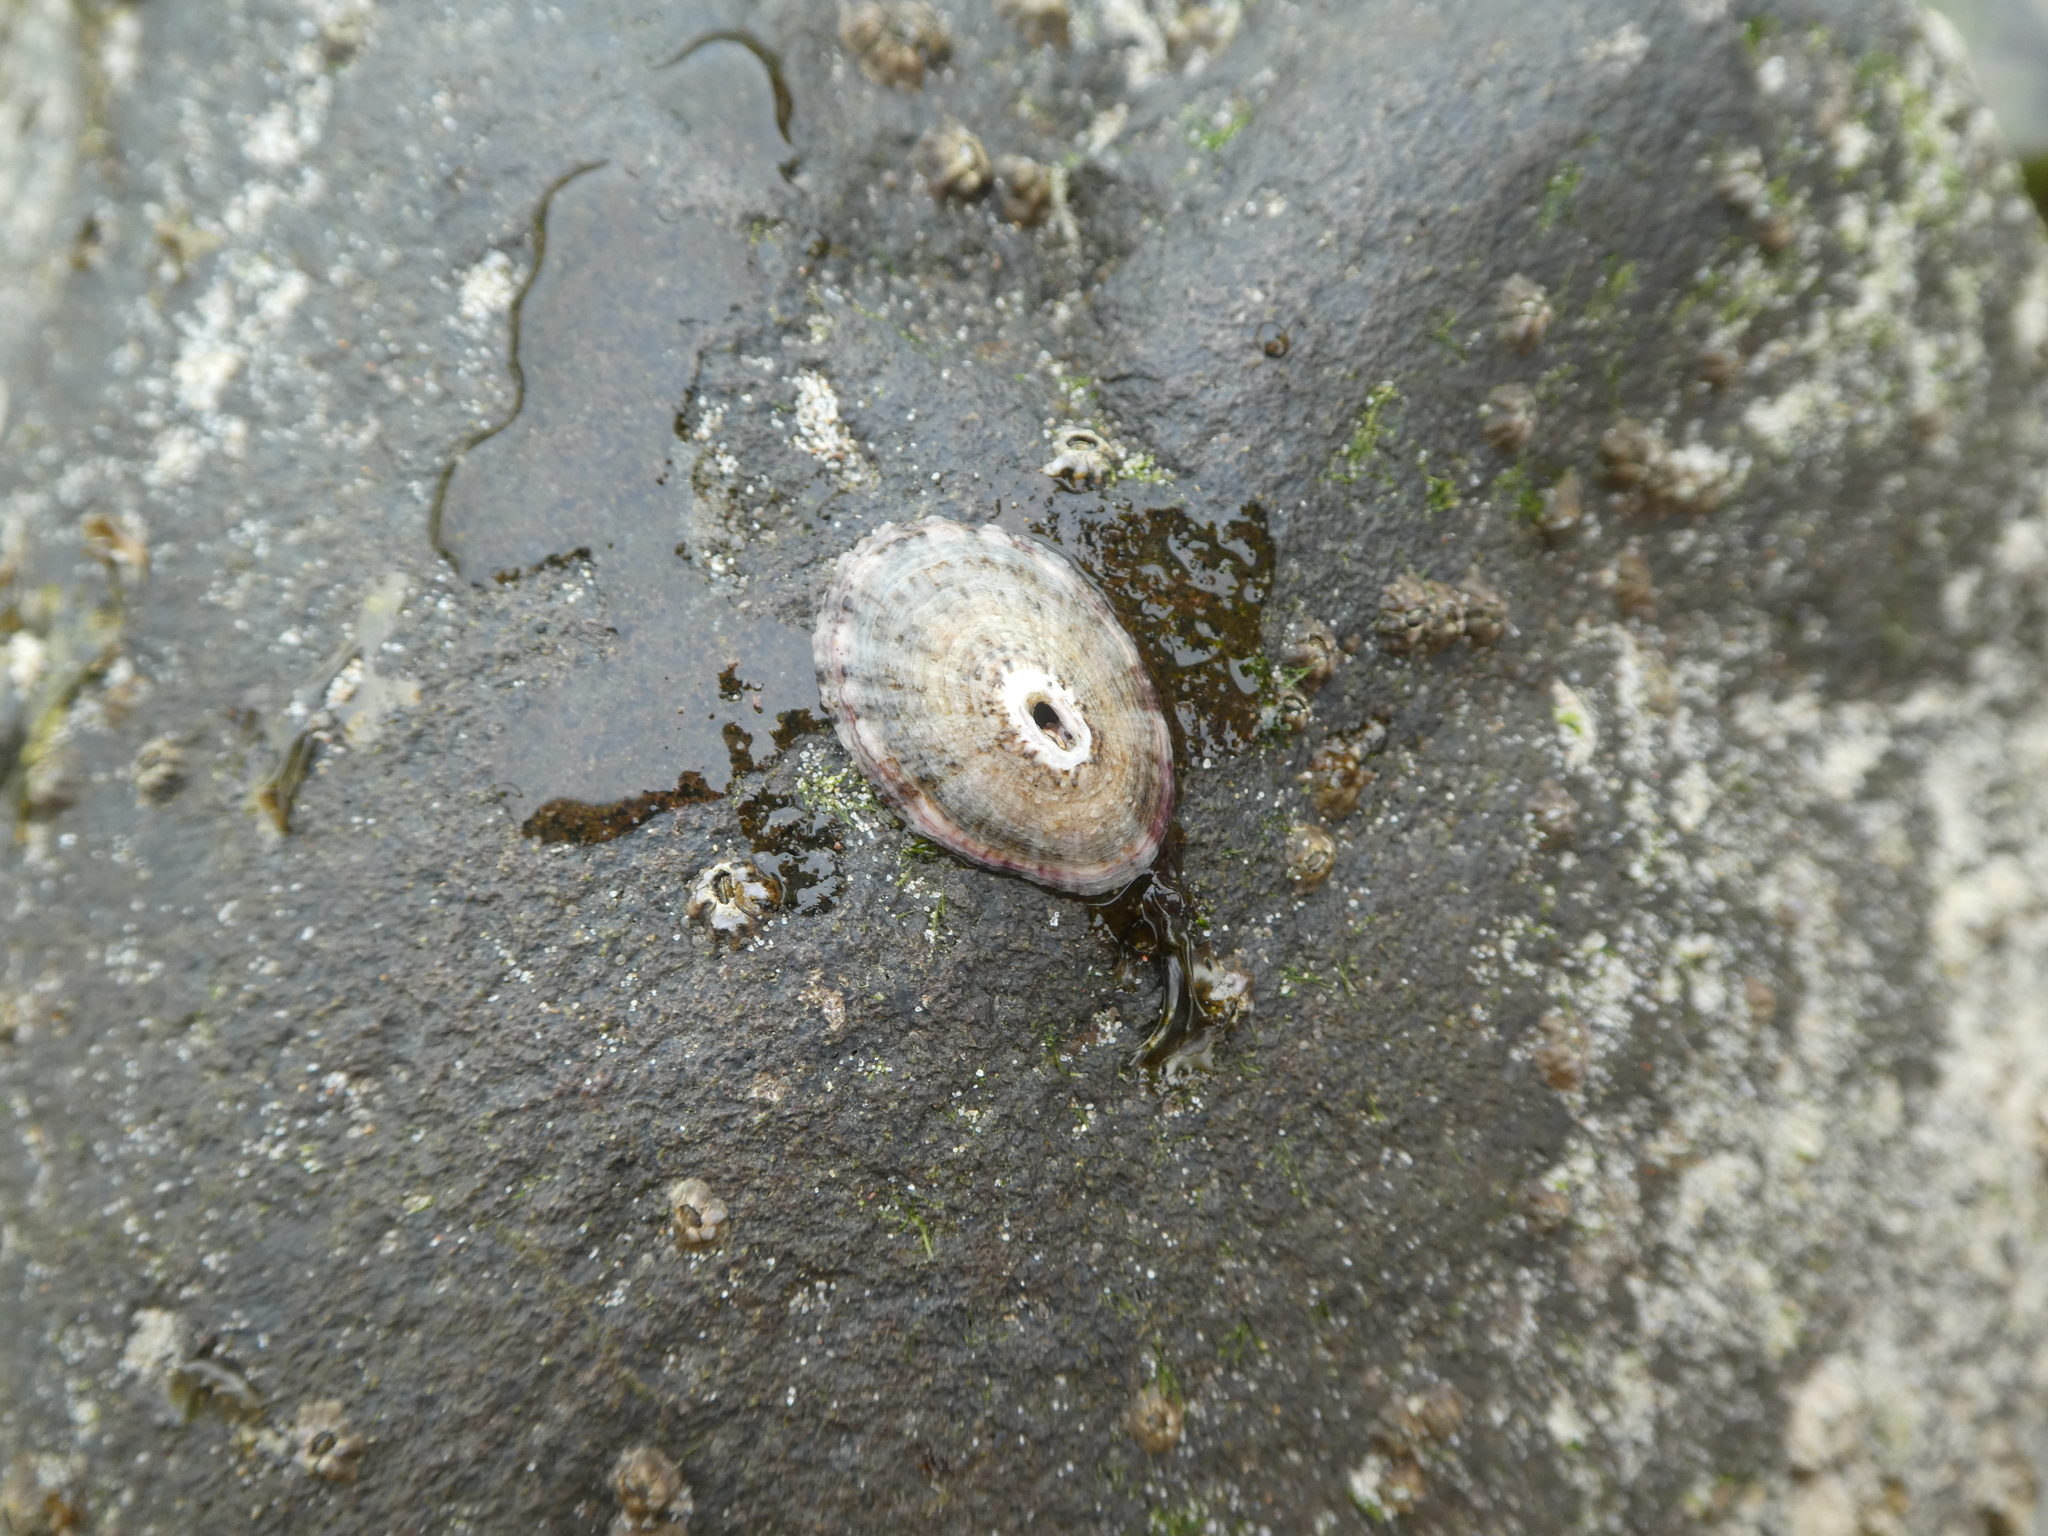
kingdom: Animalia
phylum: Mollusca
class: Gastropoda
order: Lepetellida
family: Fissurellidae
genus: Fissurella
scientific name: Fissurella volcano
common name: Volcano keyhole limpet
